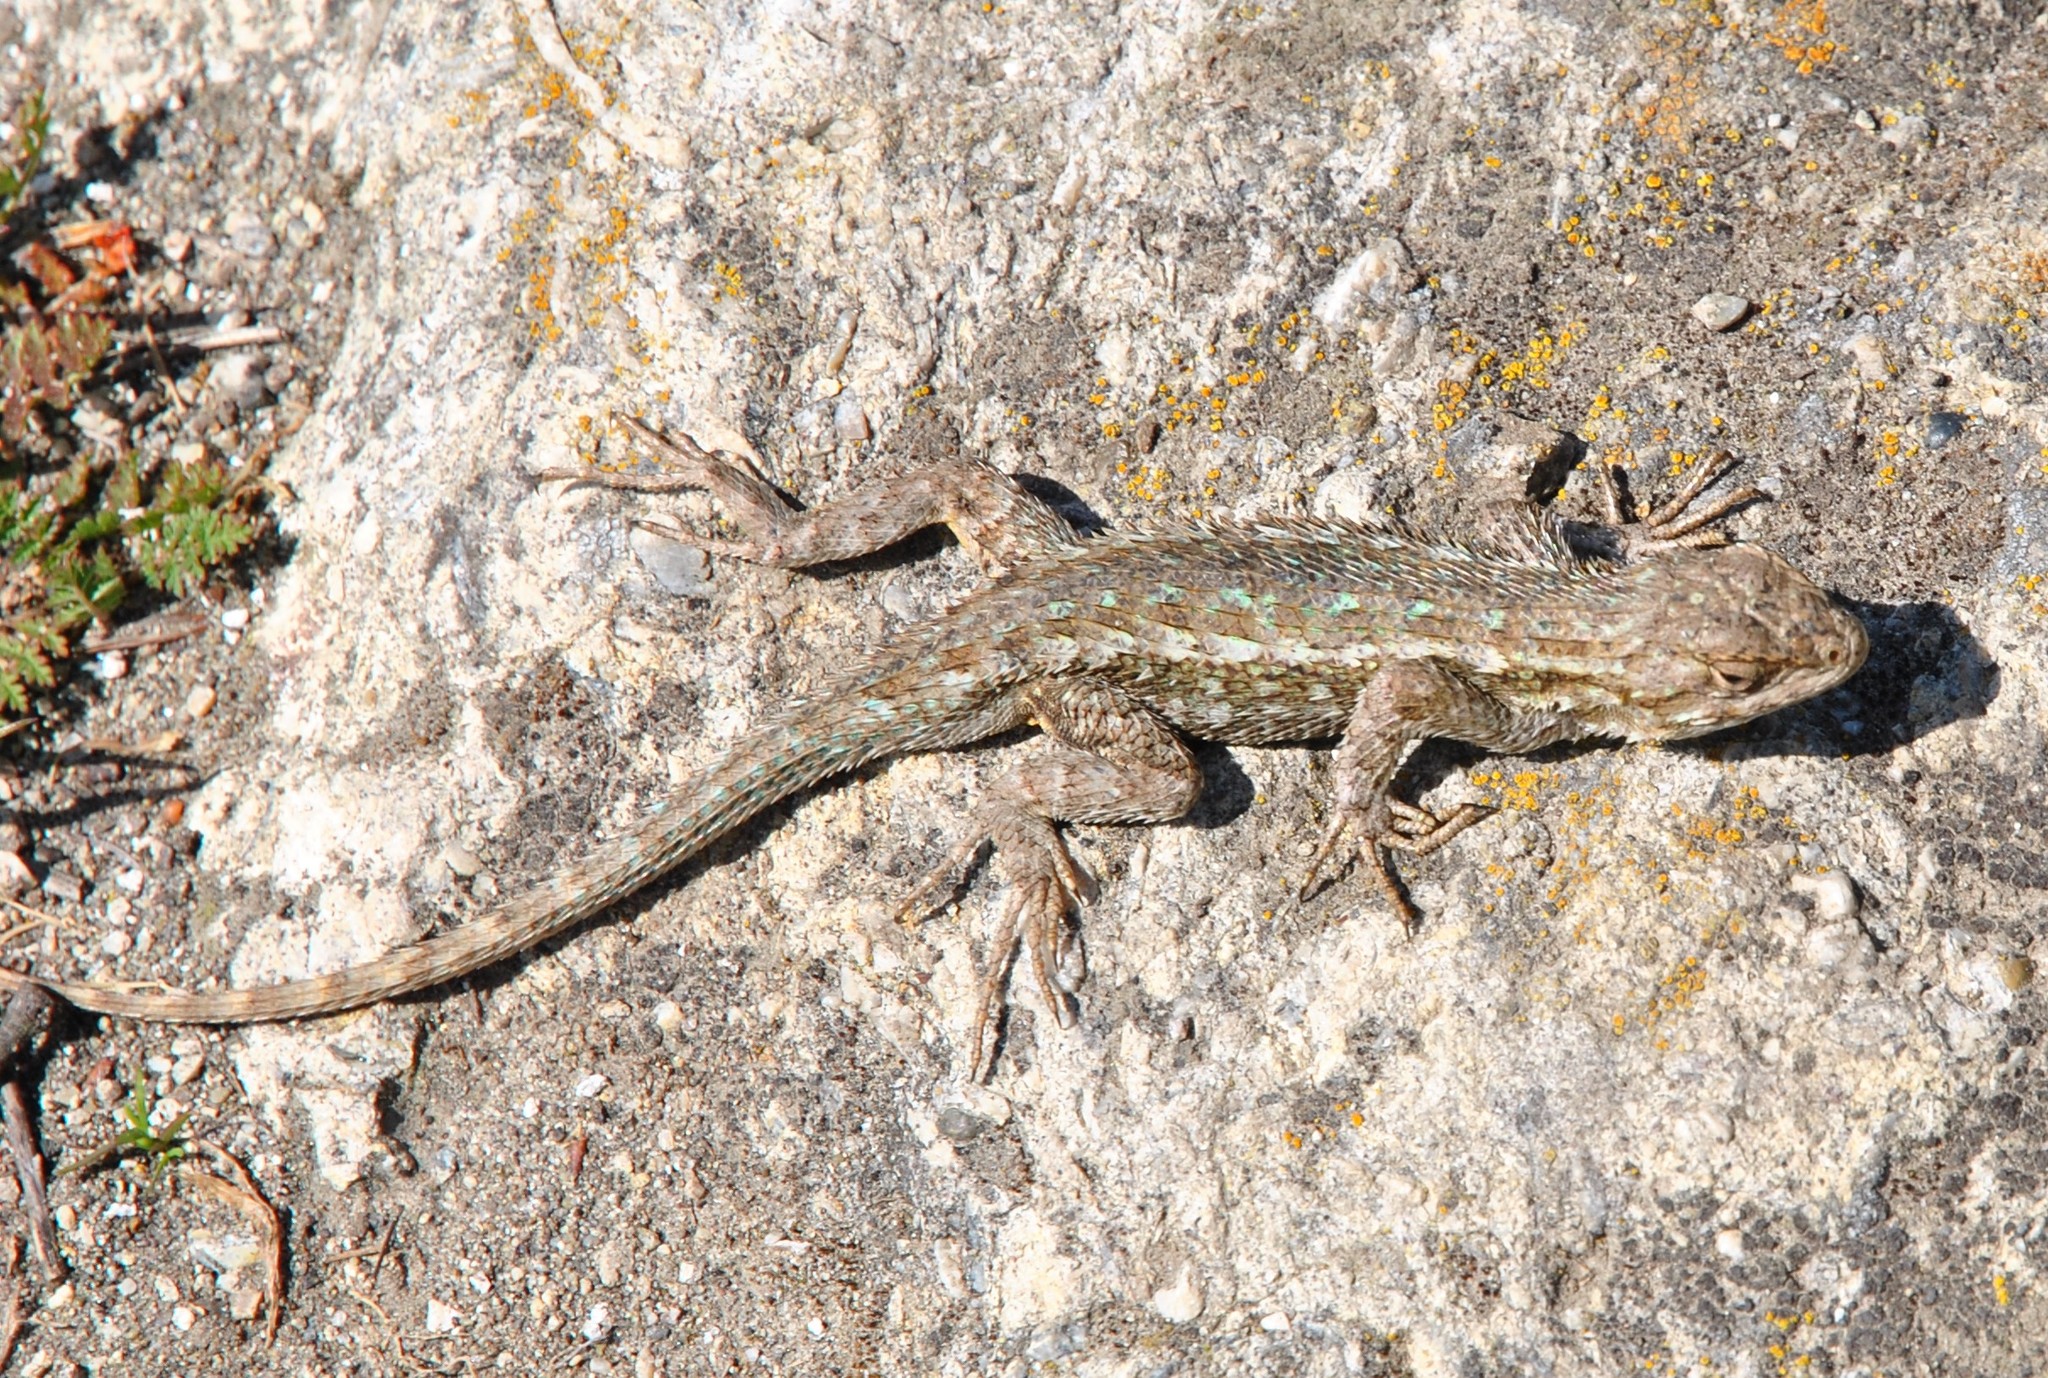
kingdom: Animalia
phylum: Chordata
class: Squamata
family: Phrynosomatidae
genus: Sceloporus
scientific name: Sceloporus occidentalis
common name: Western fence lizard
